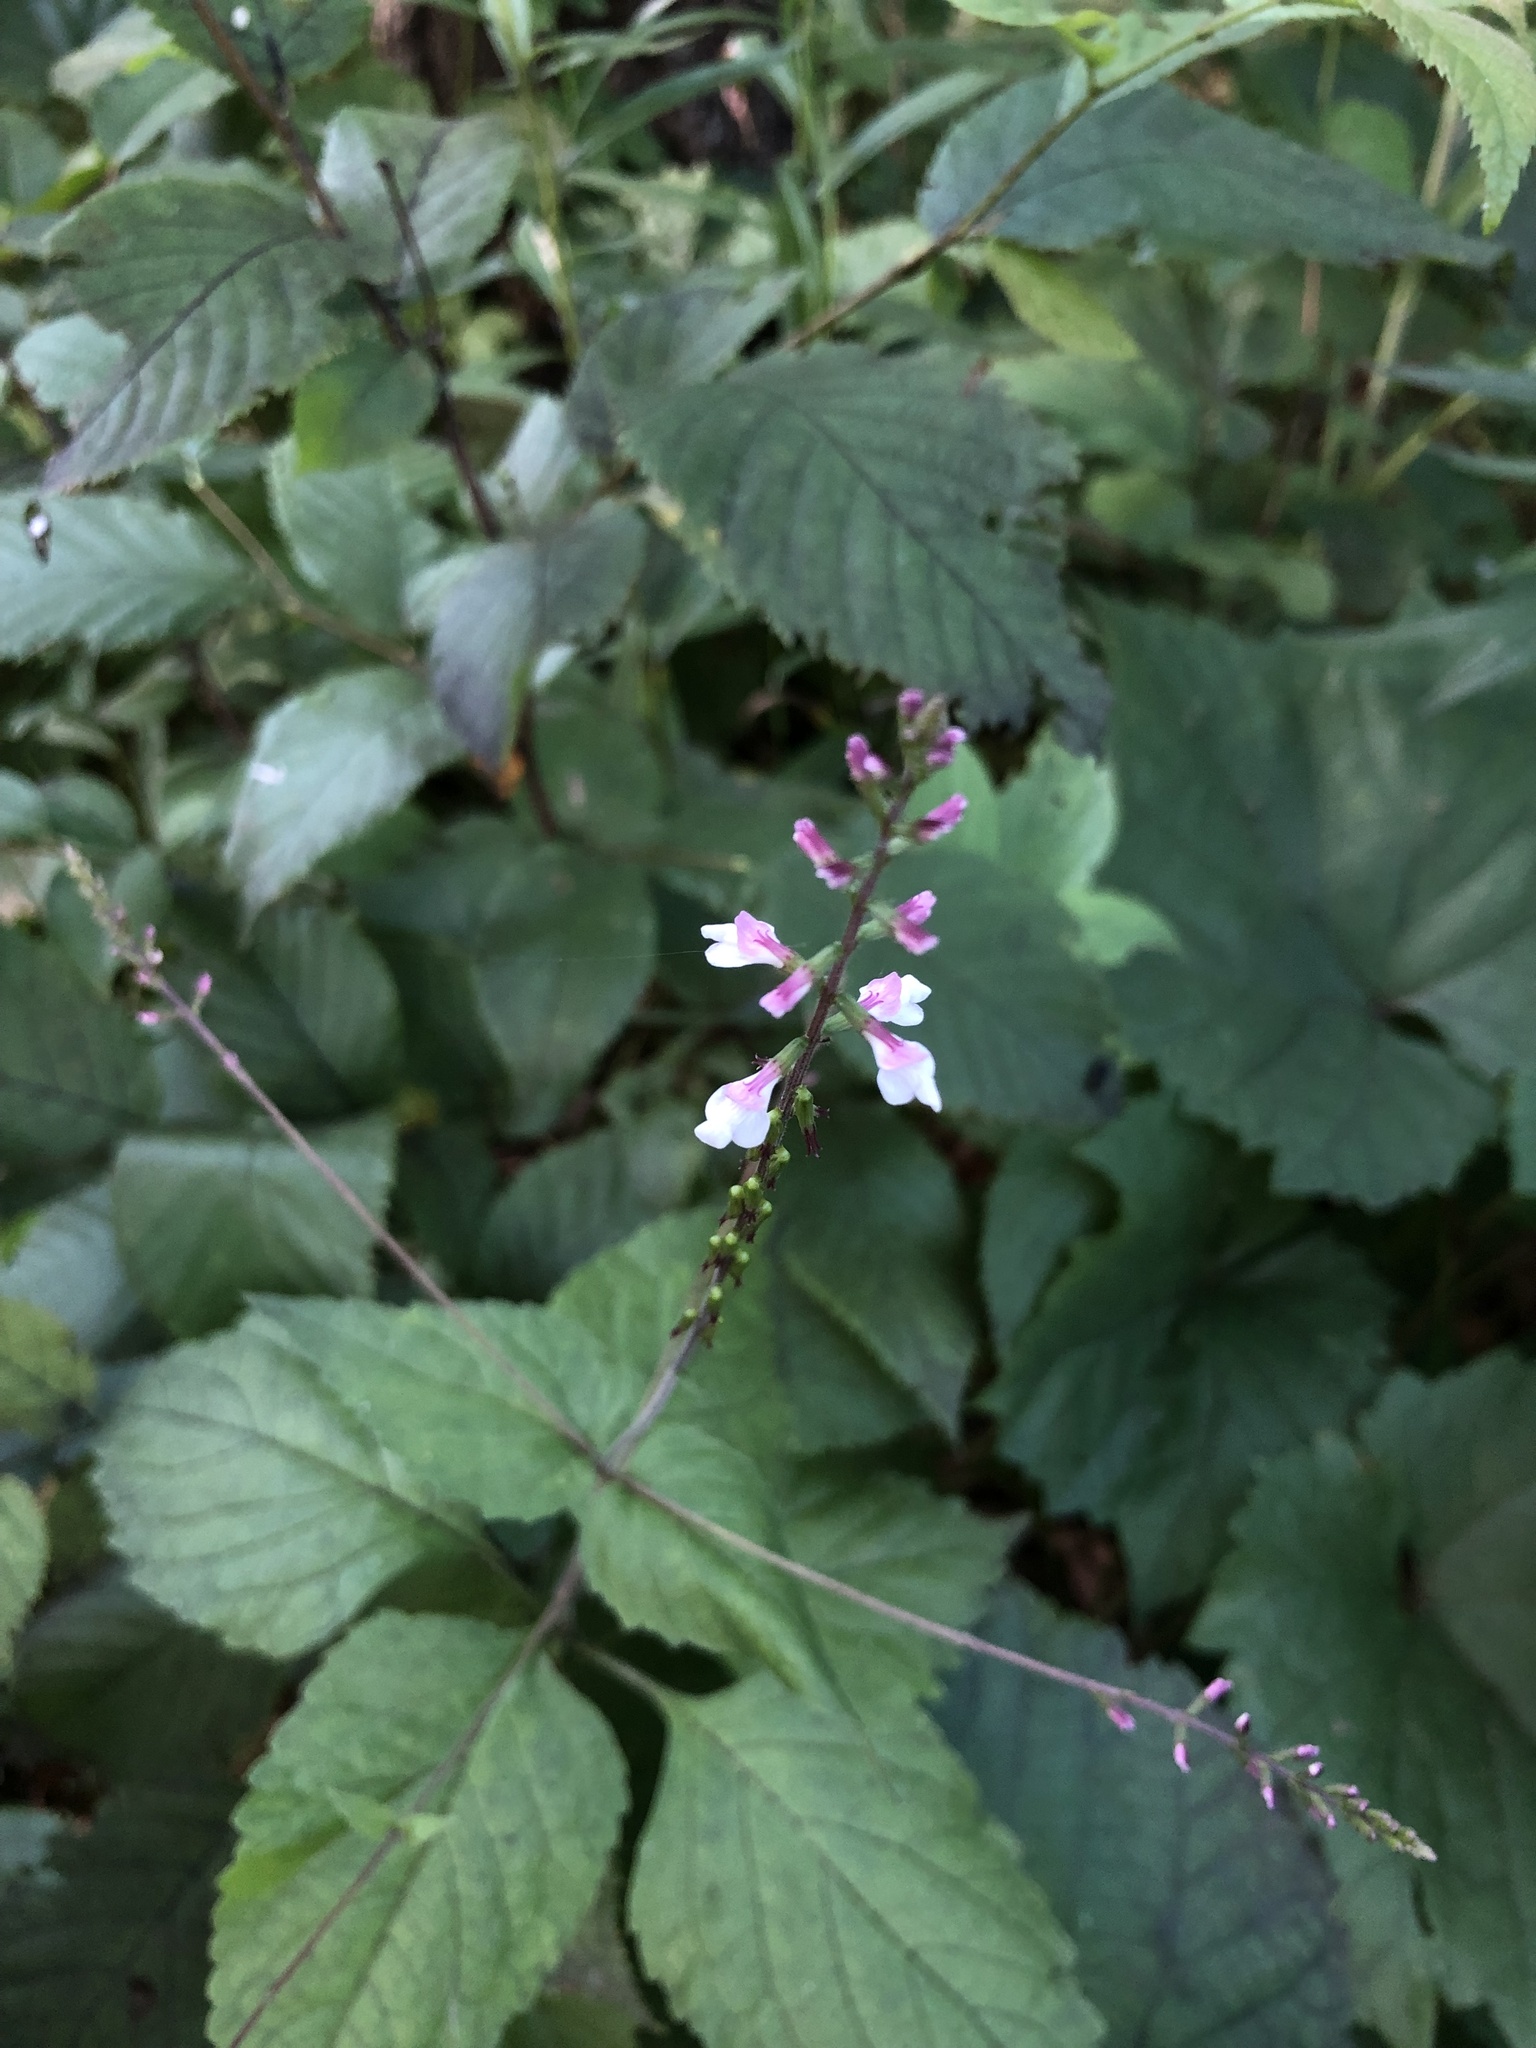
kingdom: Plantae
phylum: Tracheophyta
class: Magnoliopsida
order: Lamiales
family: Phrymaceae
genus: Phryma
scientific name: Phryma leptostachya
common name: American lopseed
